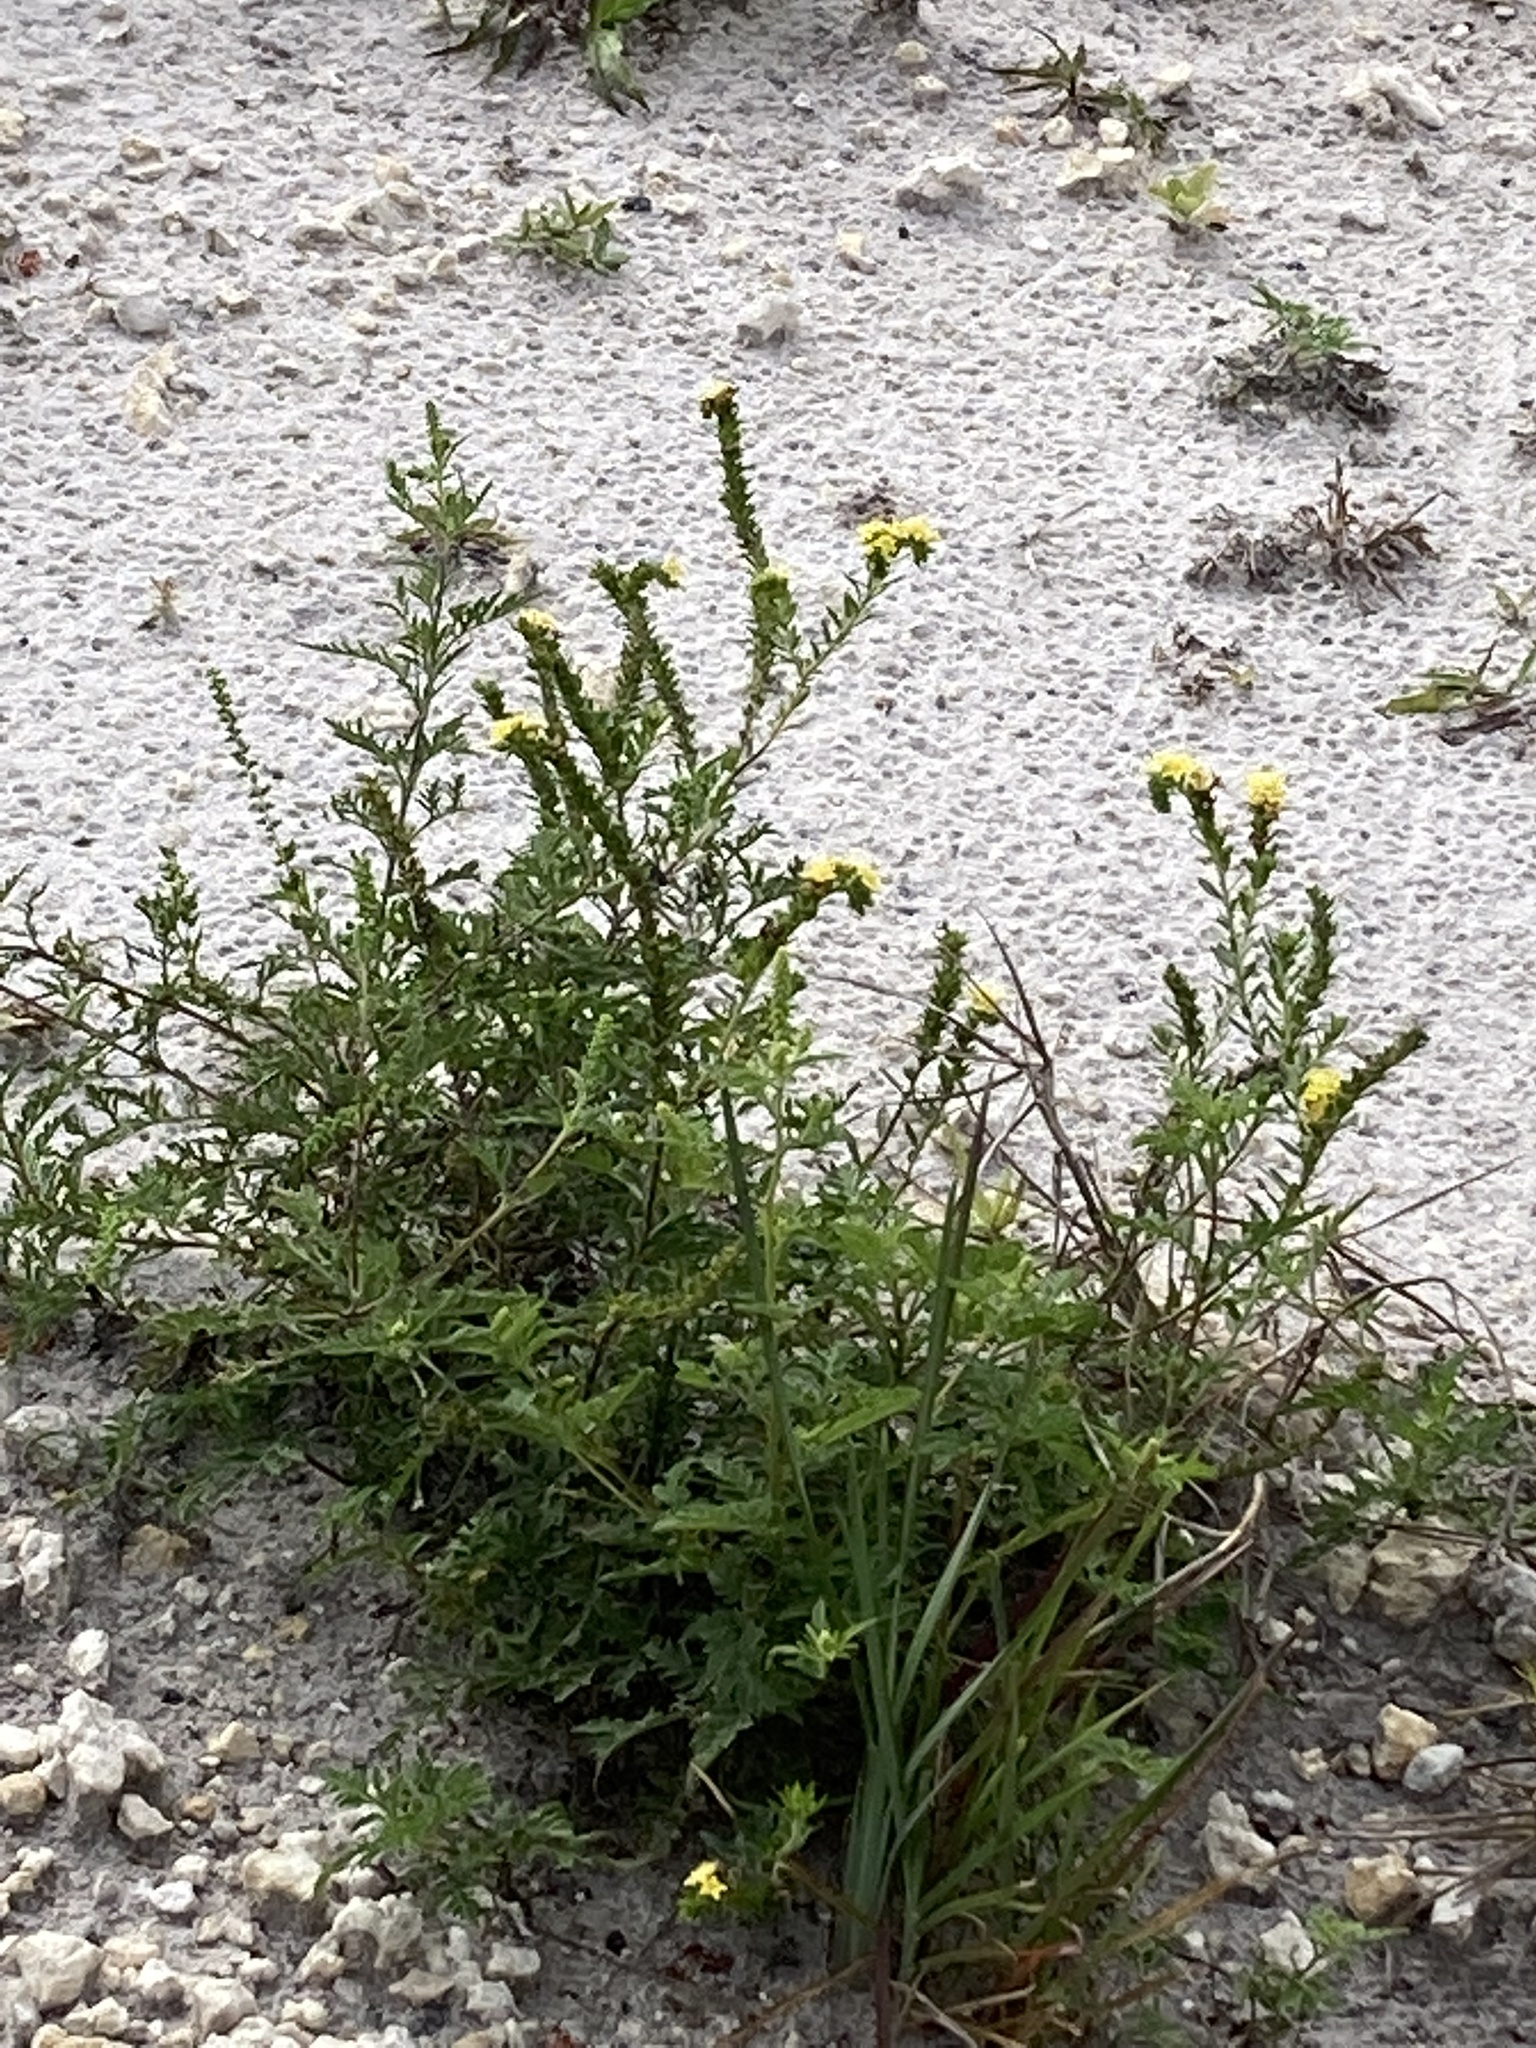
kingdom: Plantae
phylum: Tracheophyta
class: Magnoliopsida
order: Boraginales
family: Heliotropiaceae
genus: Euploca
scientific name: Euploca polyphylla
